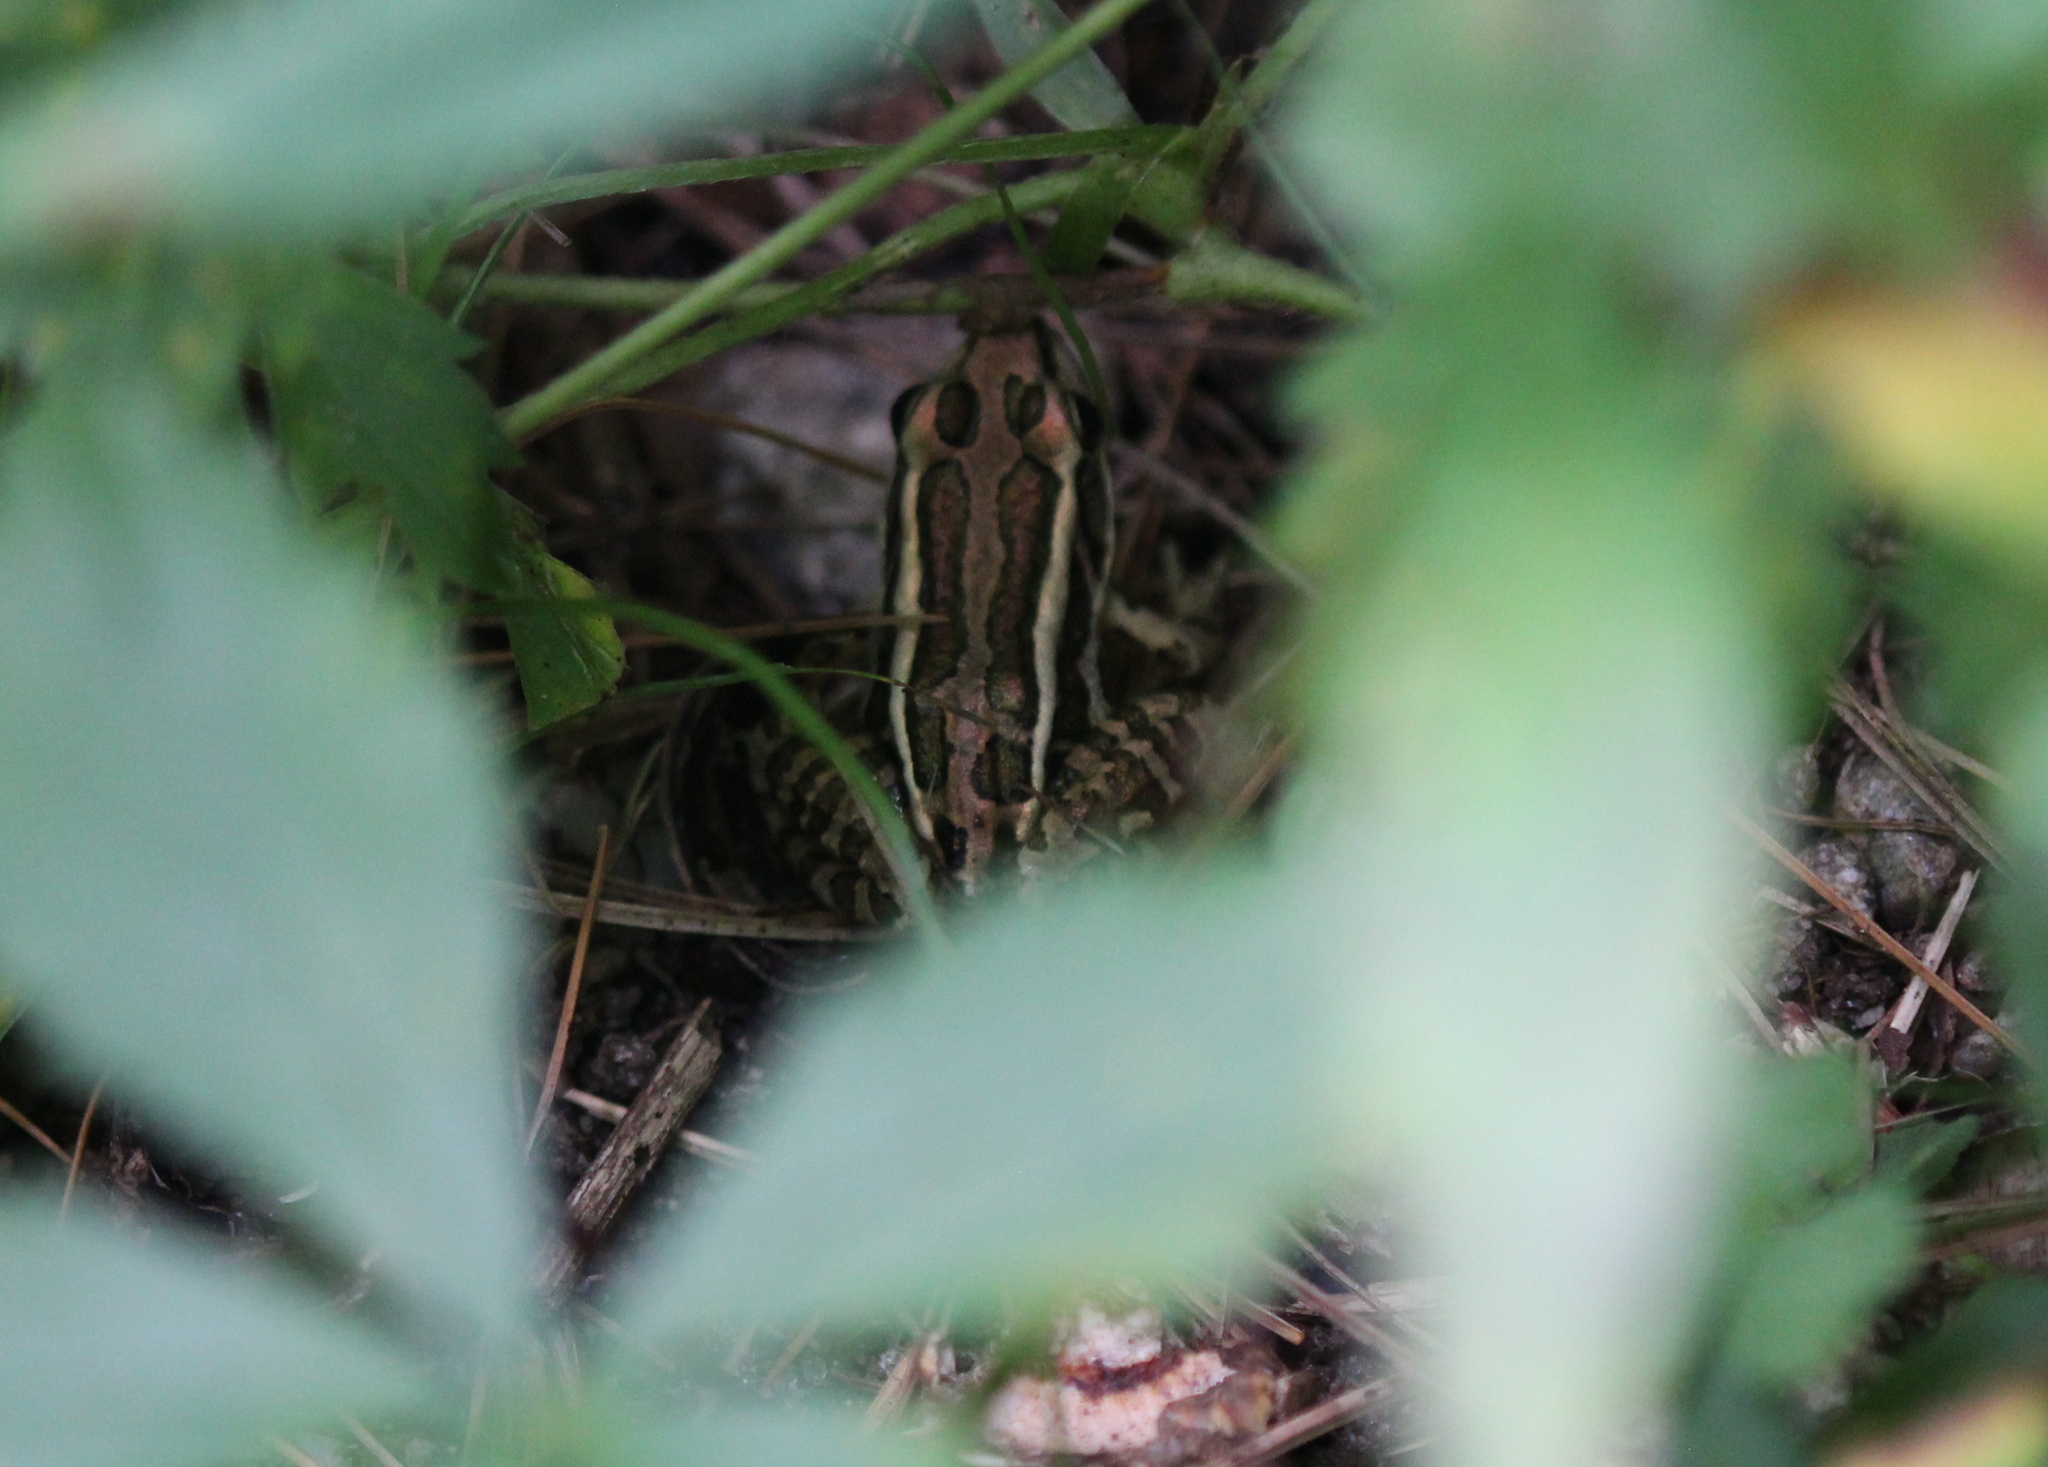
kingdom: Animalia
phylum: Chordata
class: Amphibia
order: Anura
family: Ranidae
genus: Lithobates
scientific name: Lithobates palustris
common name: Pickerel frog
